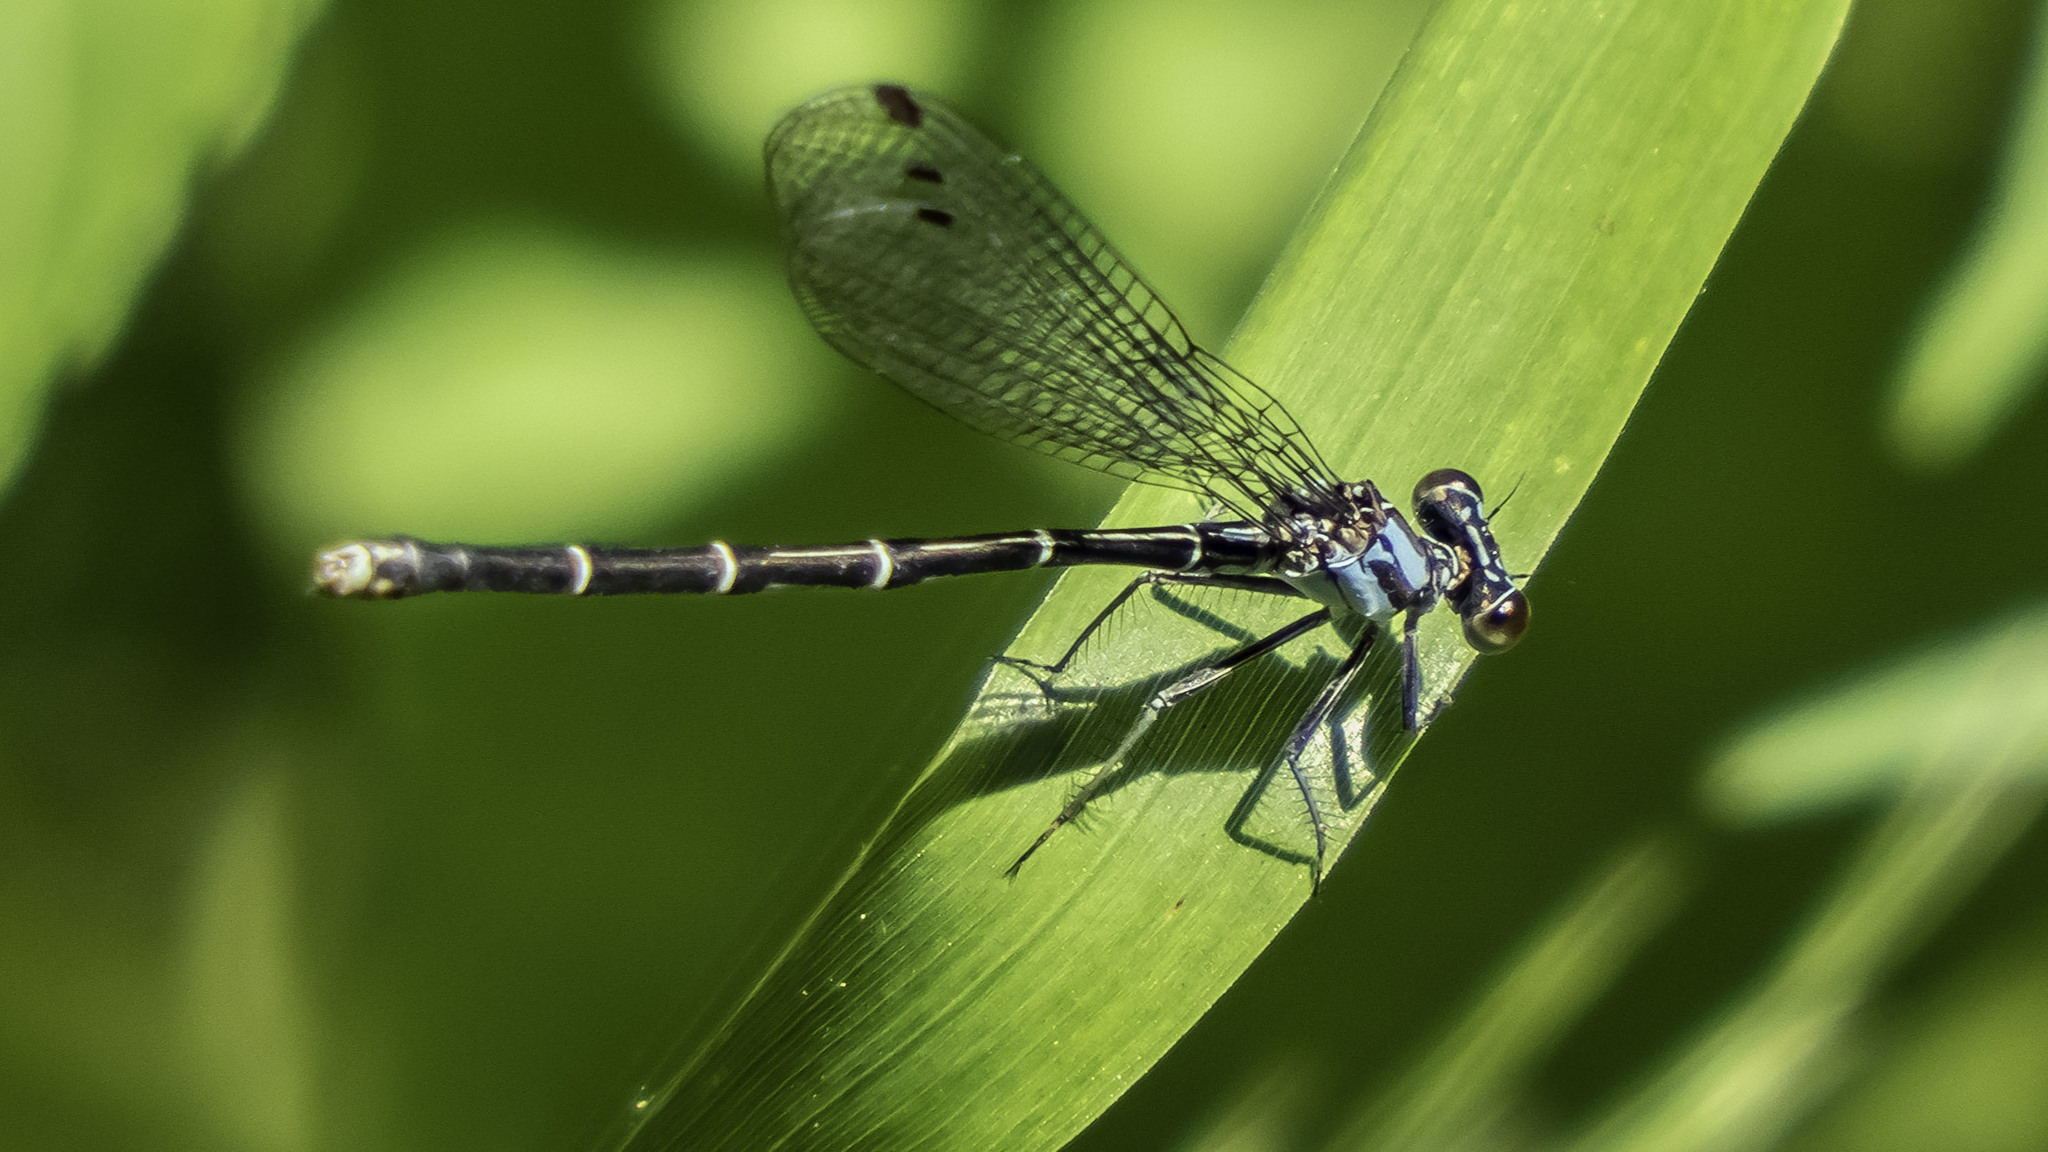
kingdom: Animalia
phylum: Arthropoda
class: Insecta
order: Odonata
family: Coenagrionidae
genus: Argia
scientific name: Argia tibialis
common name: Blue-tipped dancer
